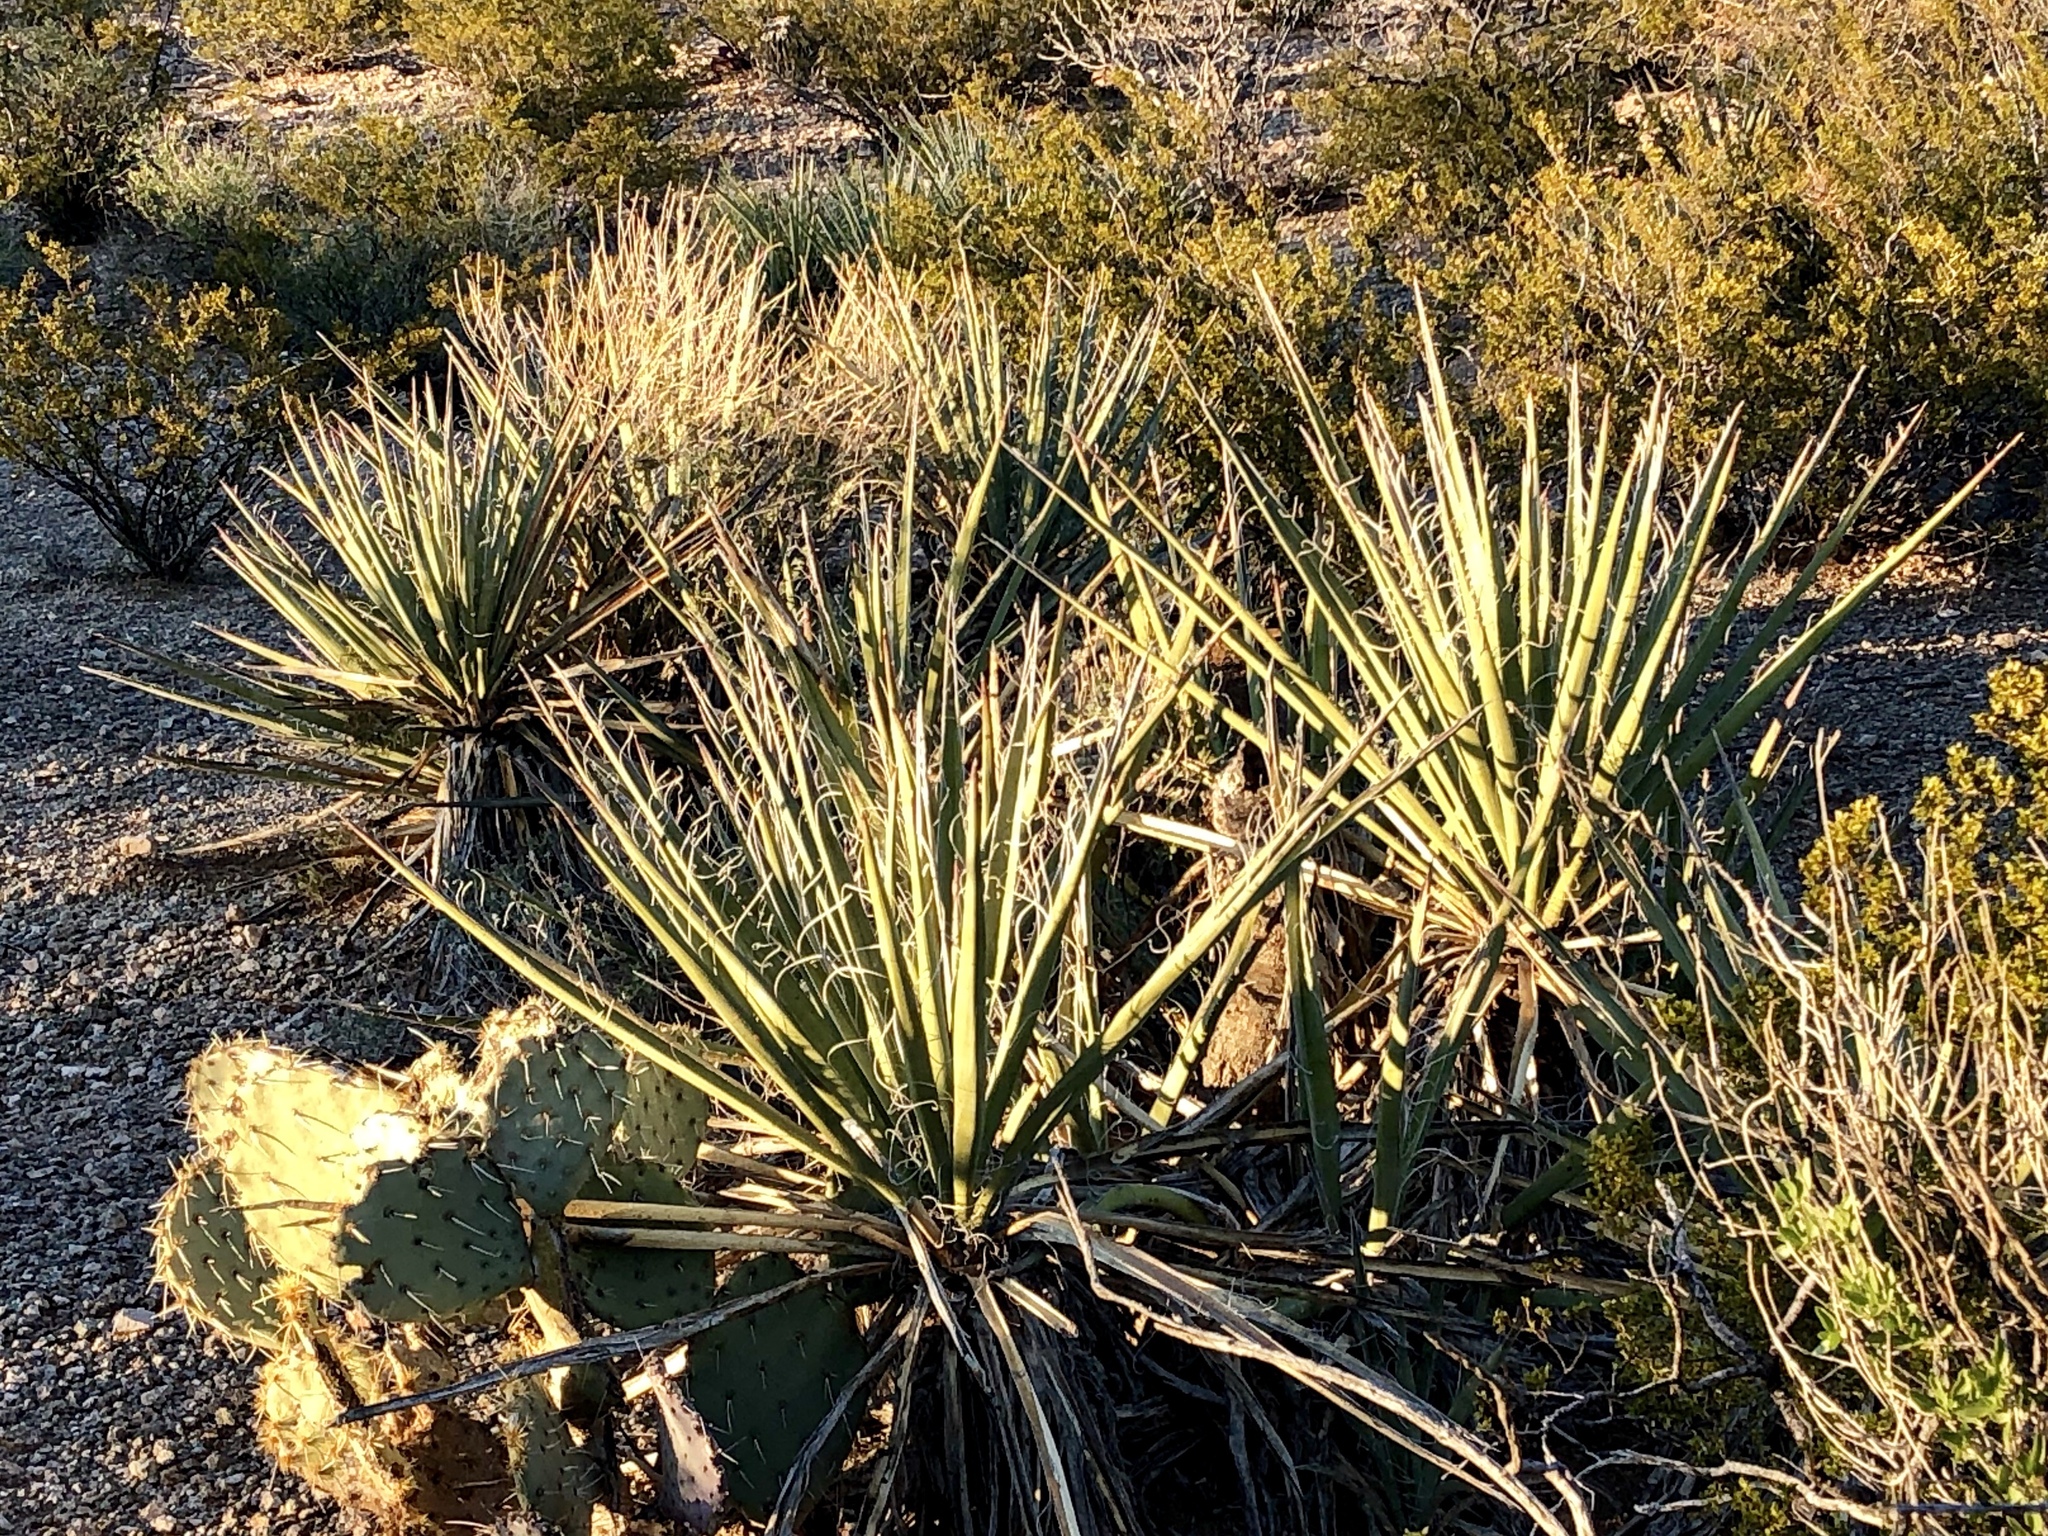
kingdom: Plantae
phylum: Tracheophyta
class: Liliopsida
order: Asparagales
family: Asparagaceae
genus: Yucca
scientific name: Yucca baccata
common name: Banana yucca
